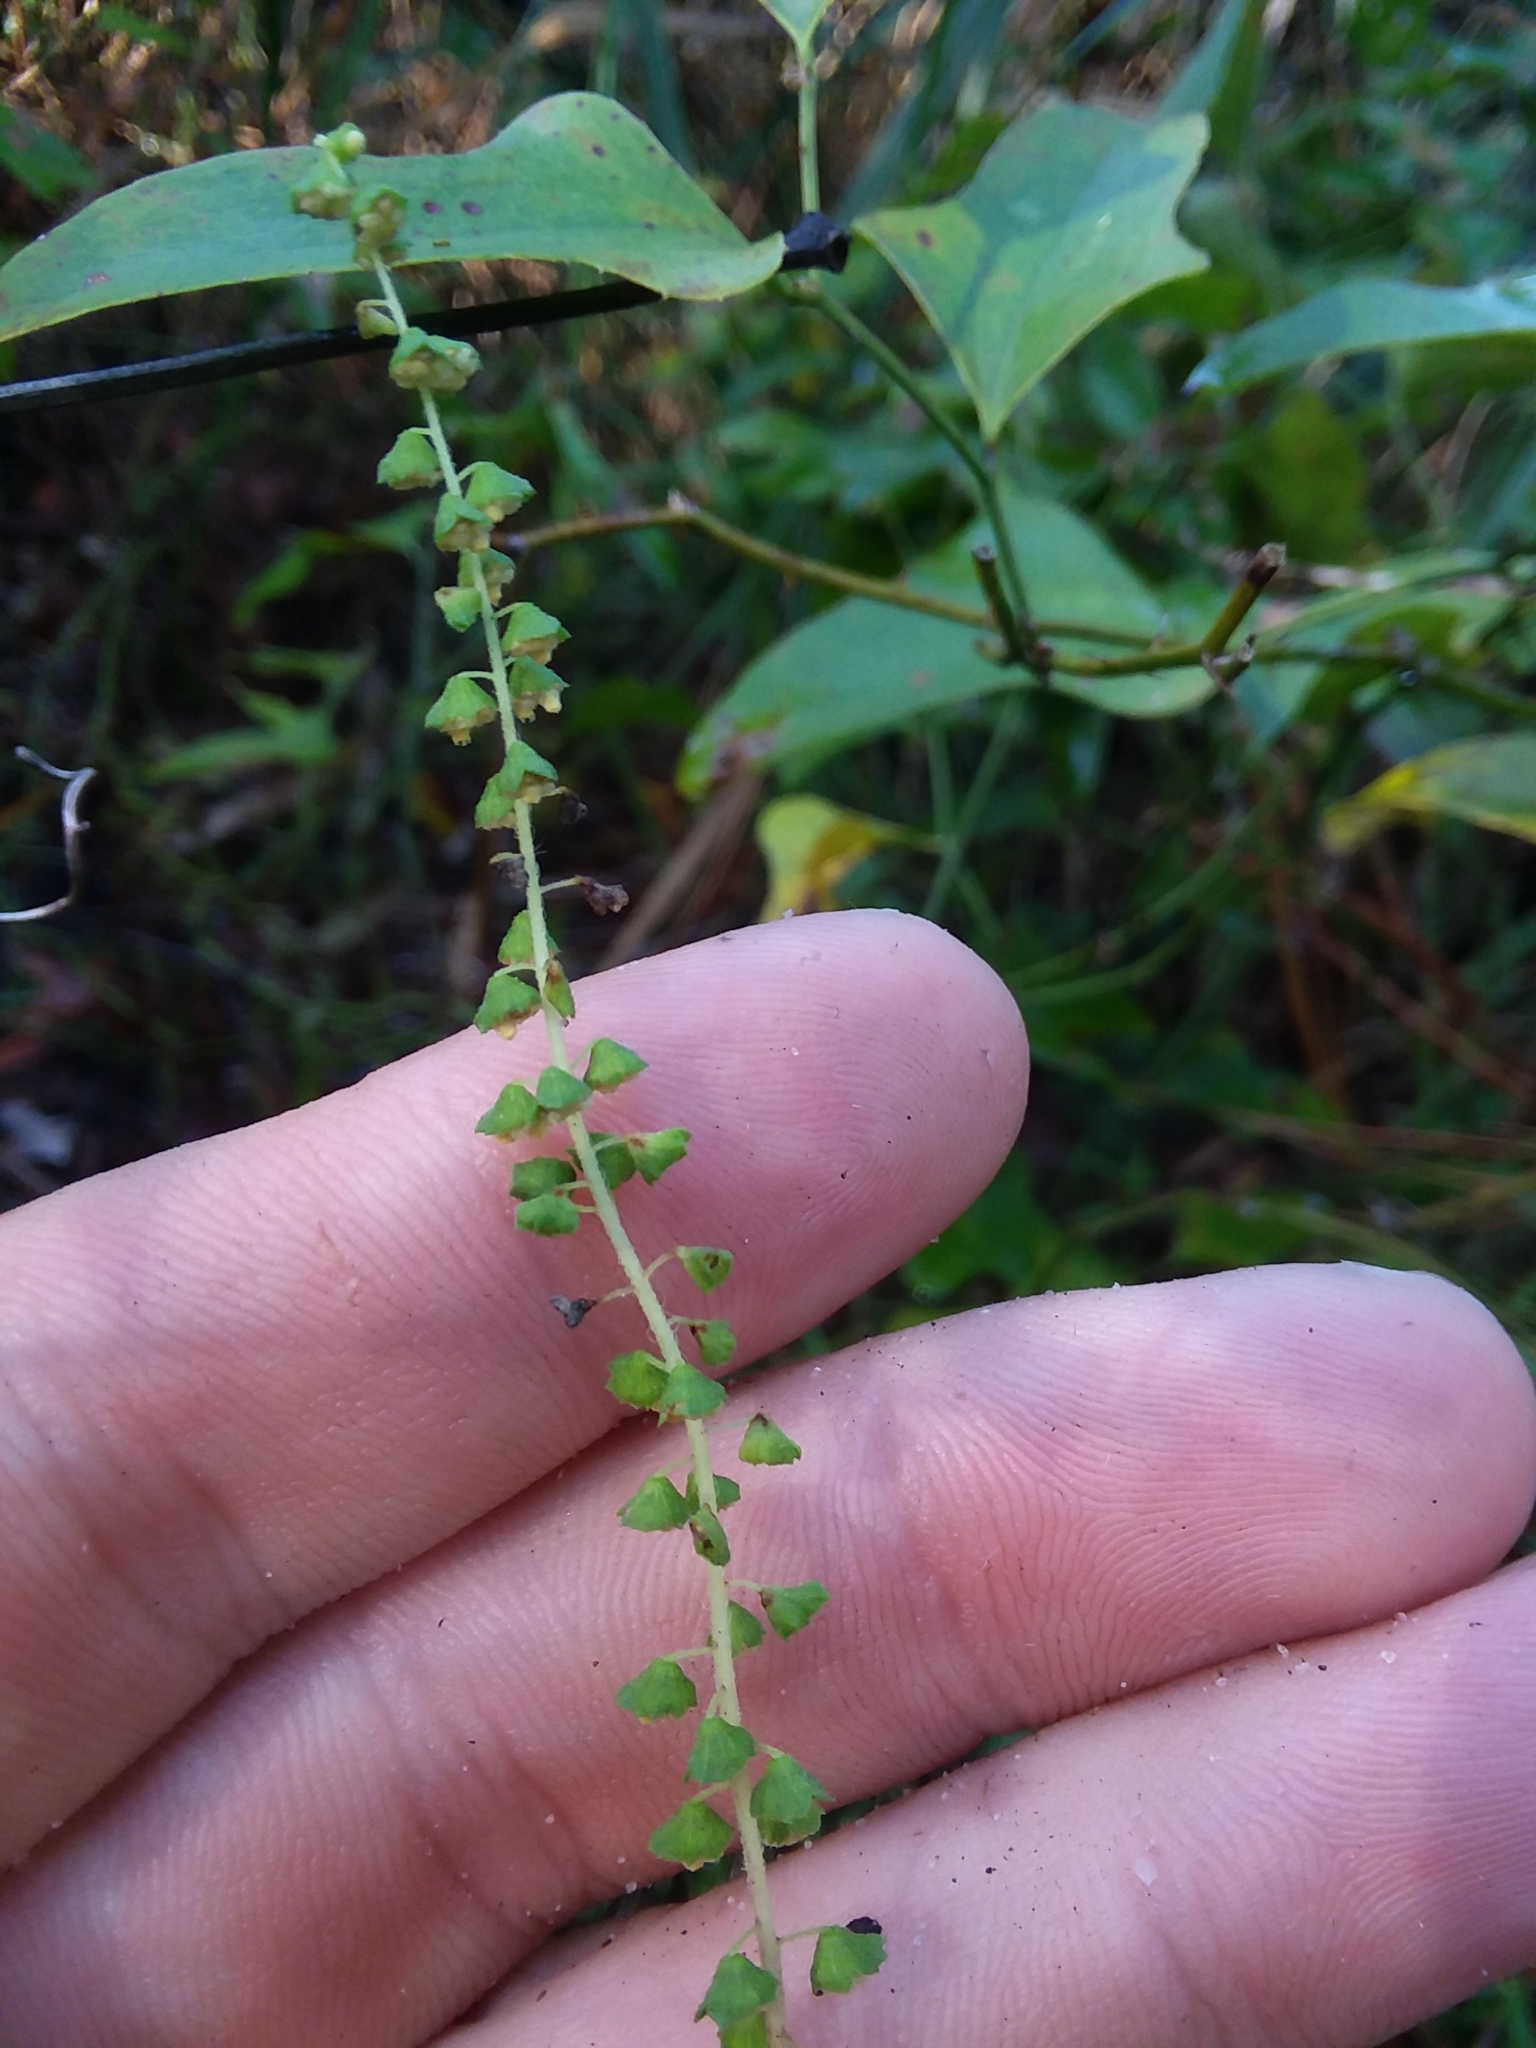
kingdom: Plantae
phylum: Tracheophyta
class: Magnoliopsida
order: Asterales
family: Asteraceae
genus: Ambrosia
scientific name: Ambrosia artemisiifolia
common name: Annual ragweed
